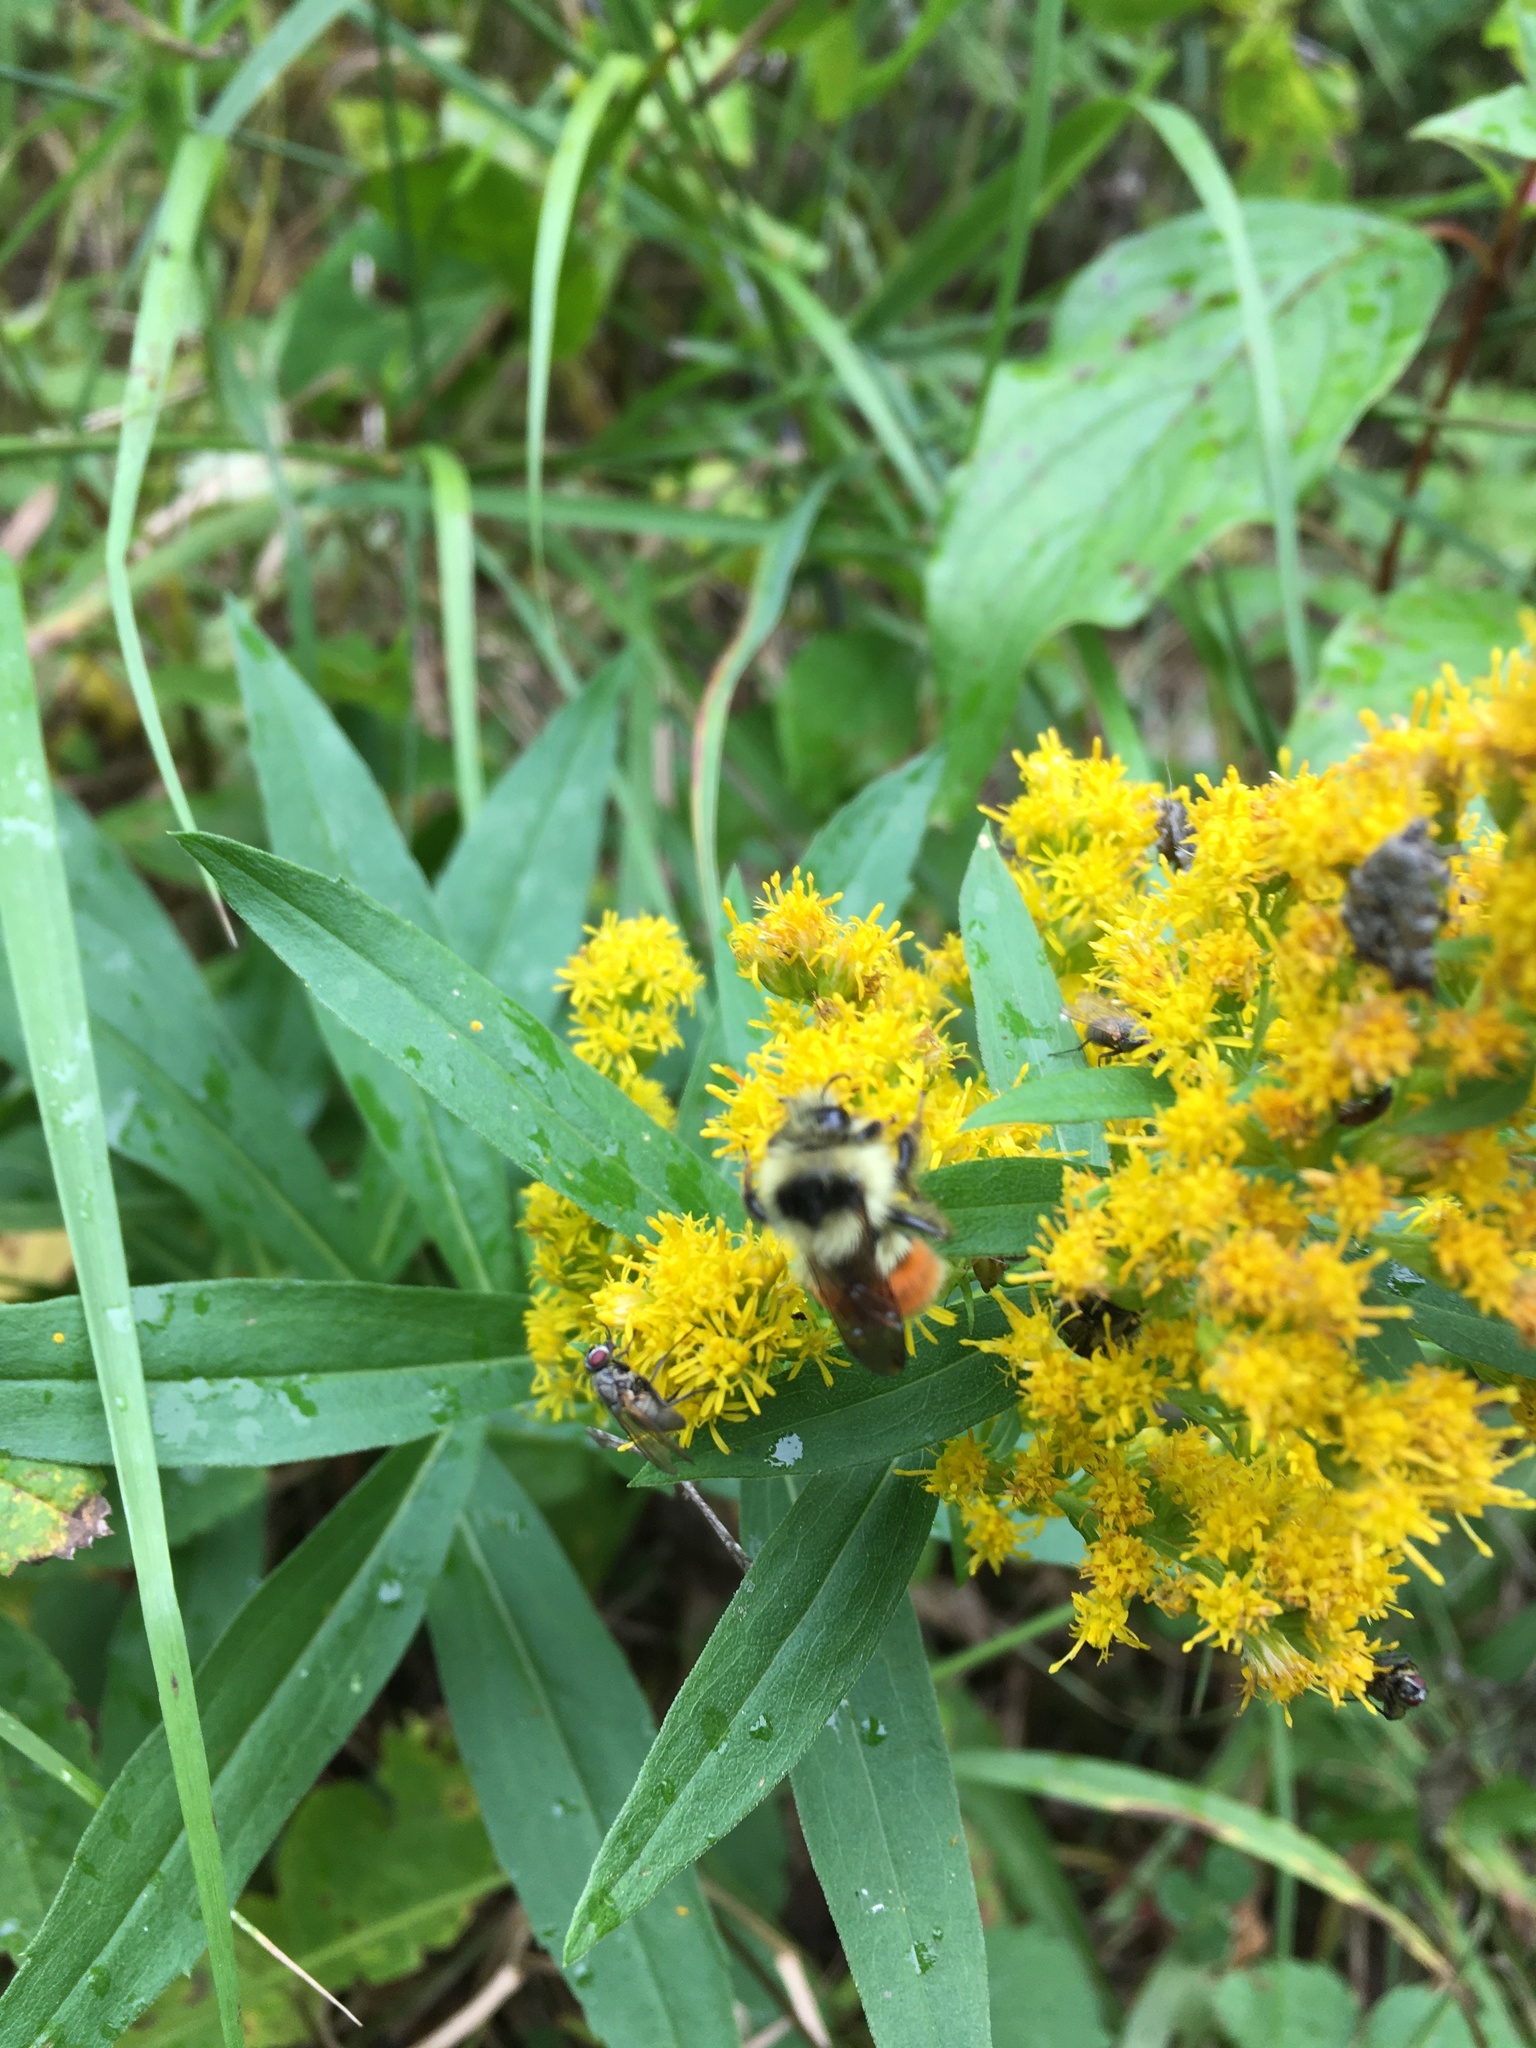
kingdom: Animalia
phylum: Arthropoda
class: Insecta
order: Hymenoptera
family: Apidae
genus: Bombus
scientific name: Bombus ternarius
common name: Tri-colored bumble bee
